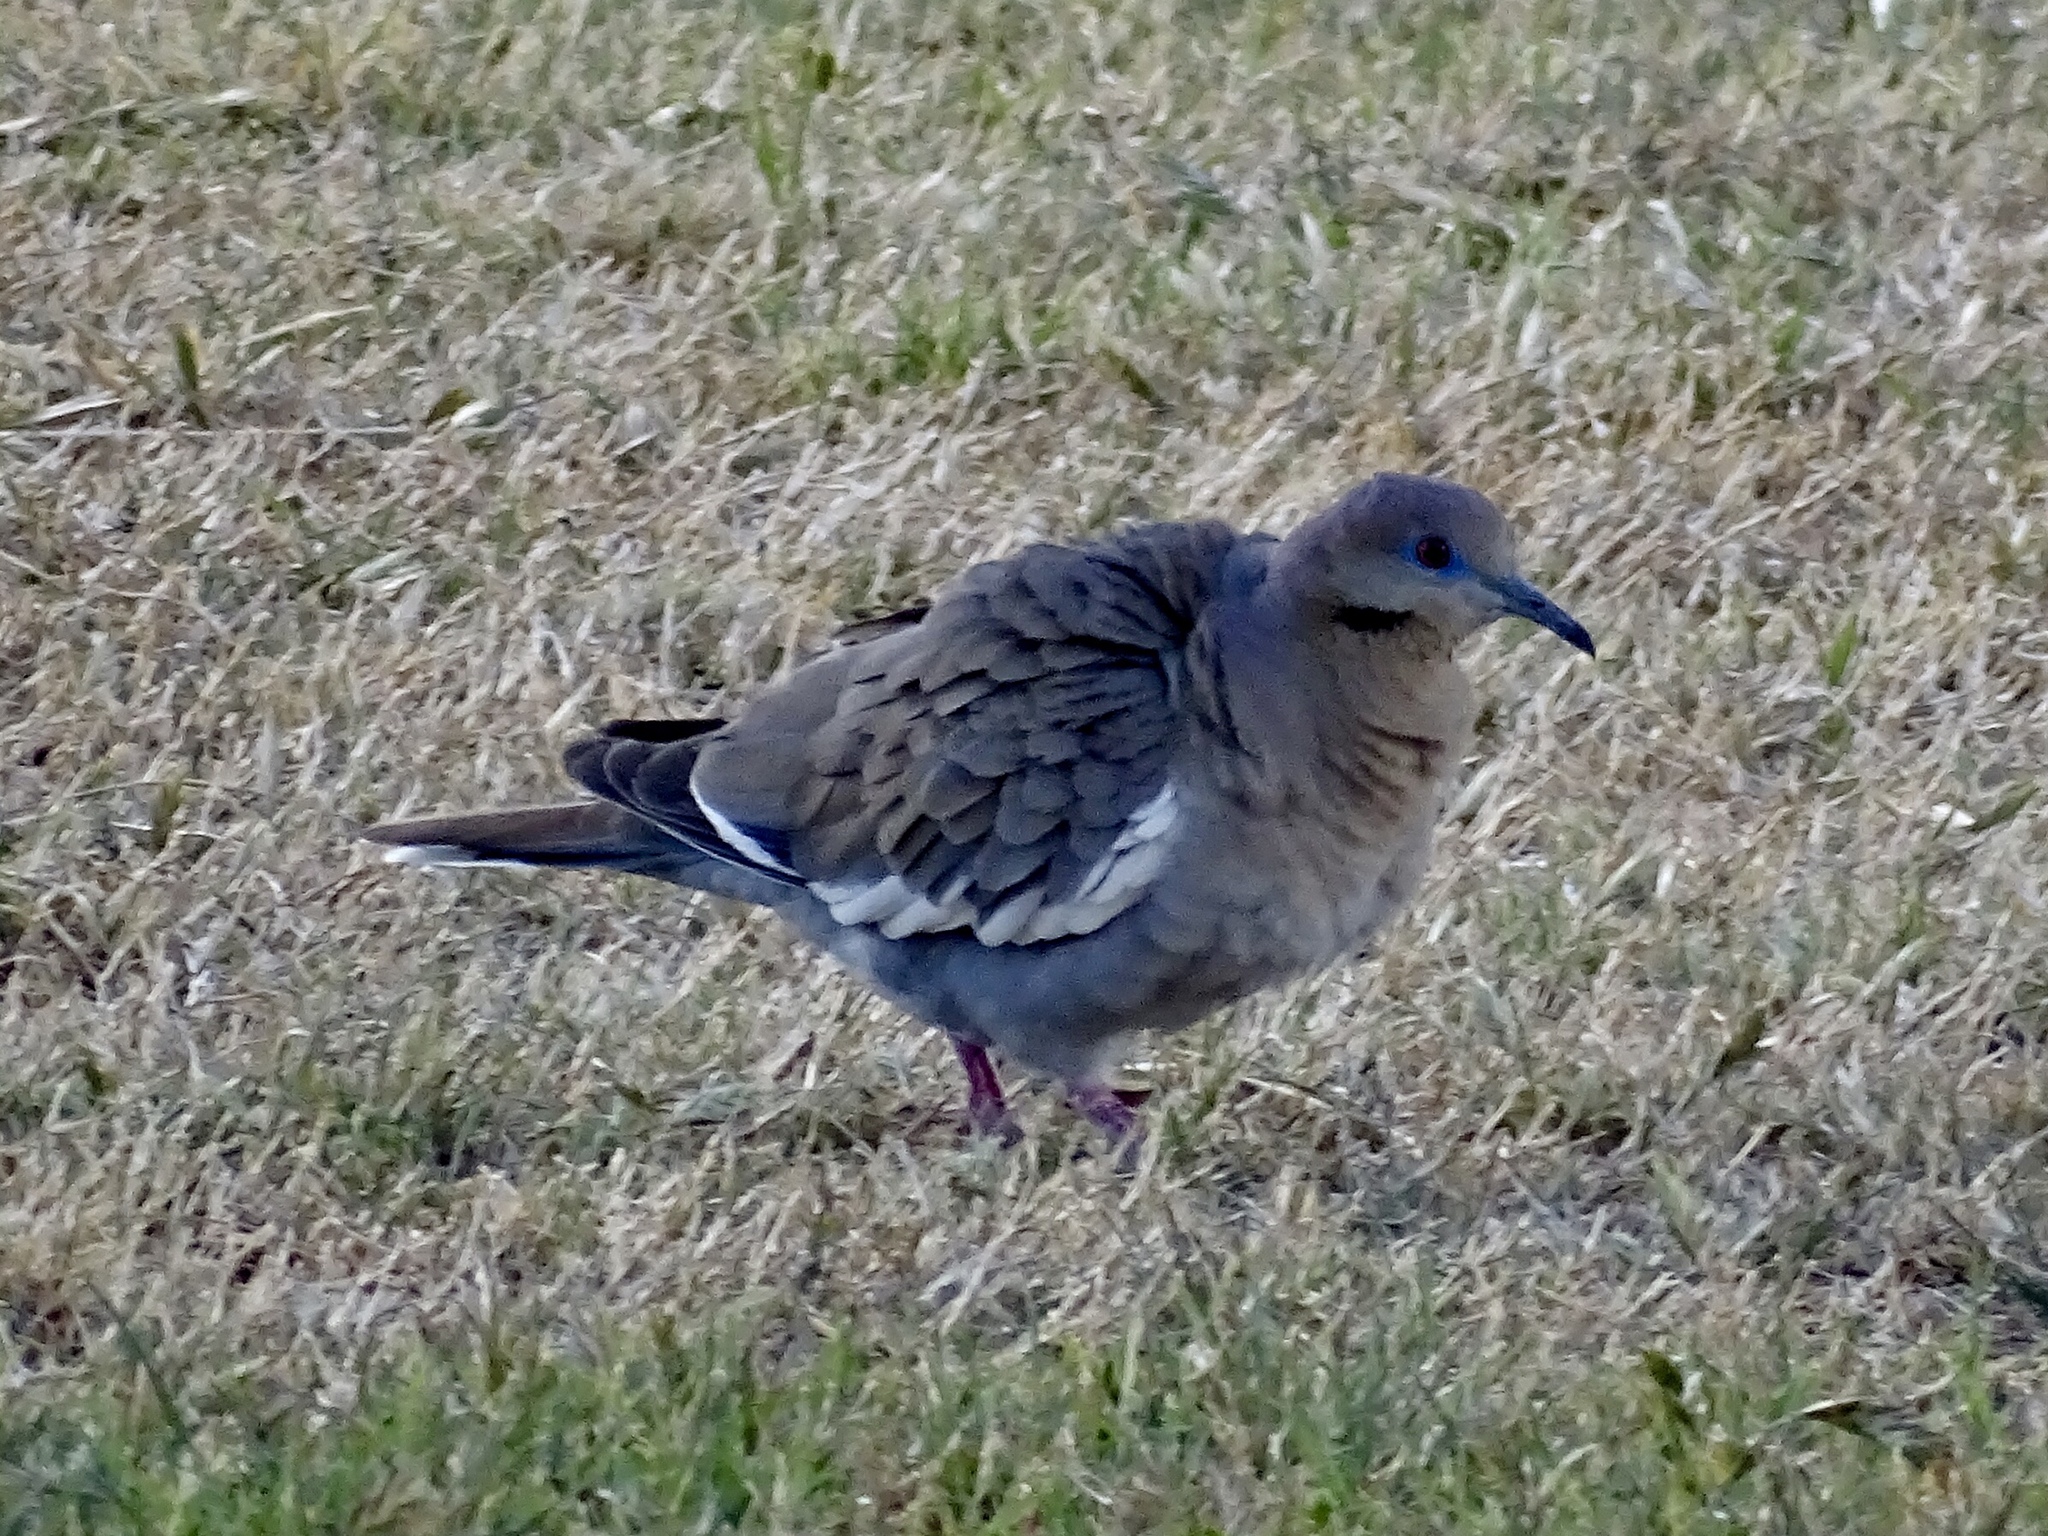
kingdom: Animalia
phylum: Chordata
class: Aves
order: Columbiformes
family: Columbidae
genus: Zenaida
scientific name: Zenaida asiatica
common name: White-winged dove
